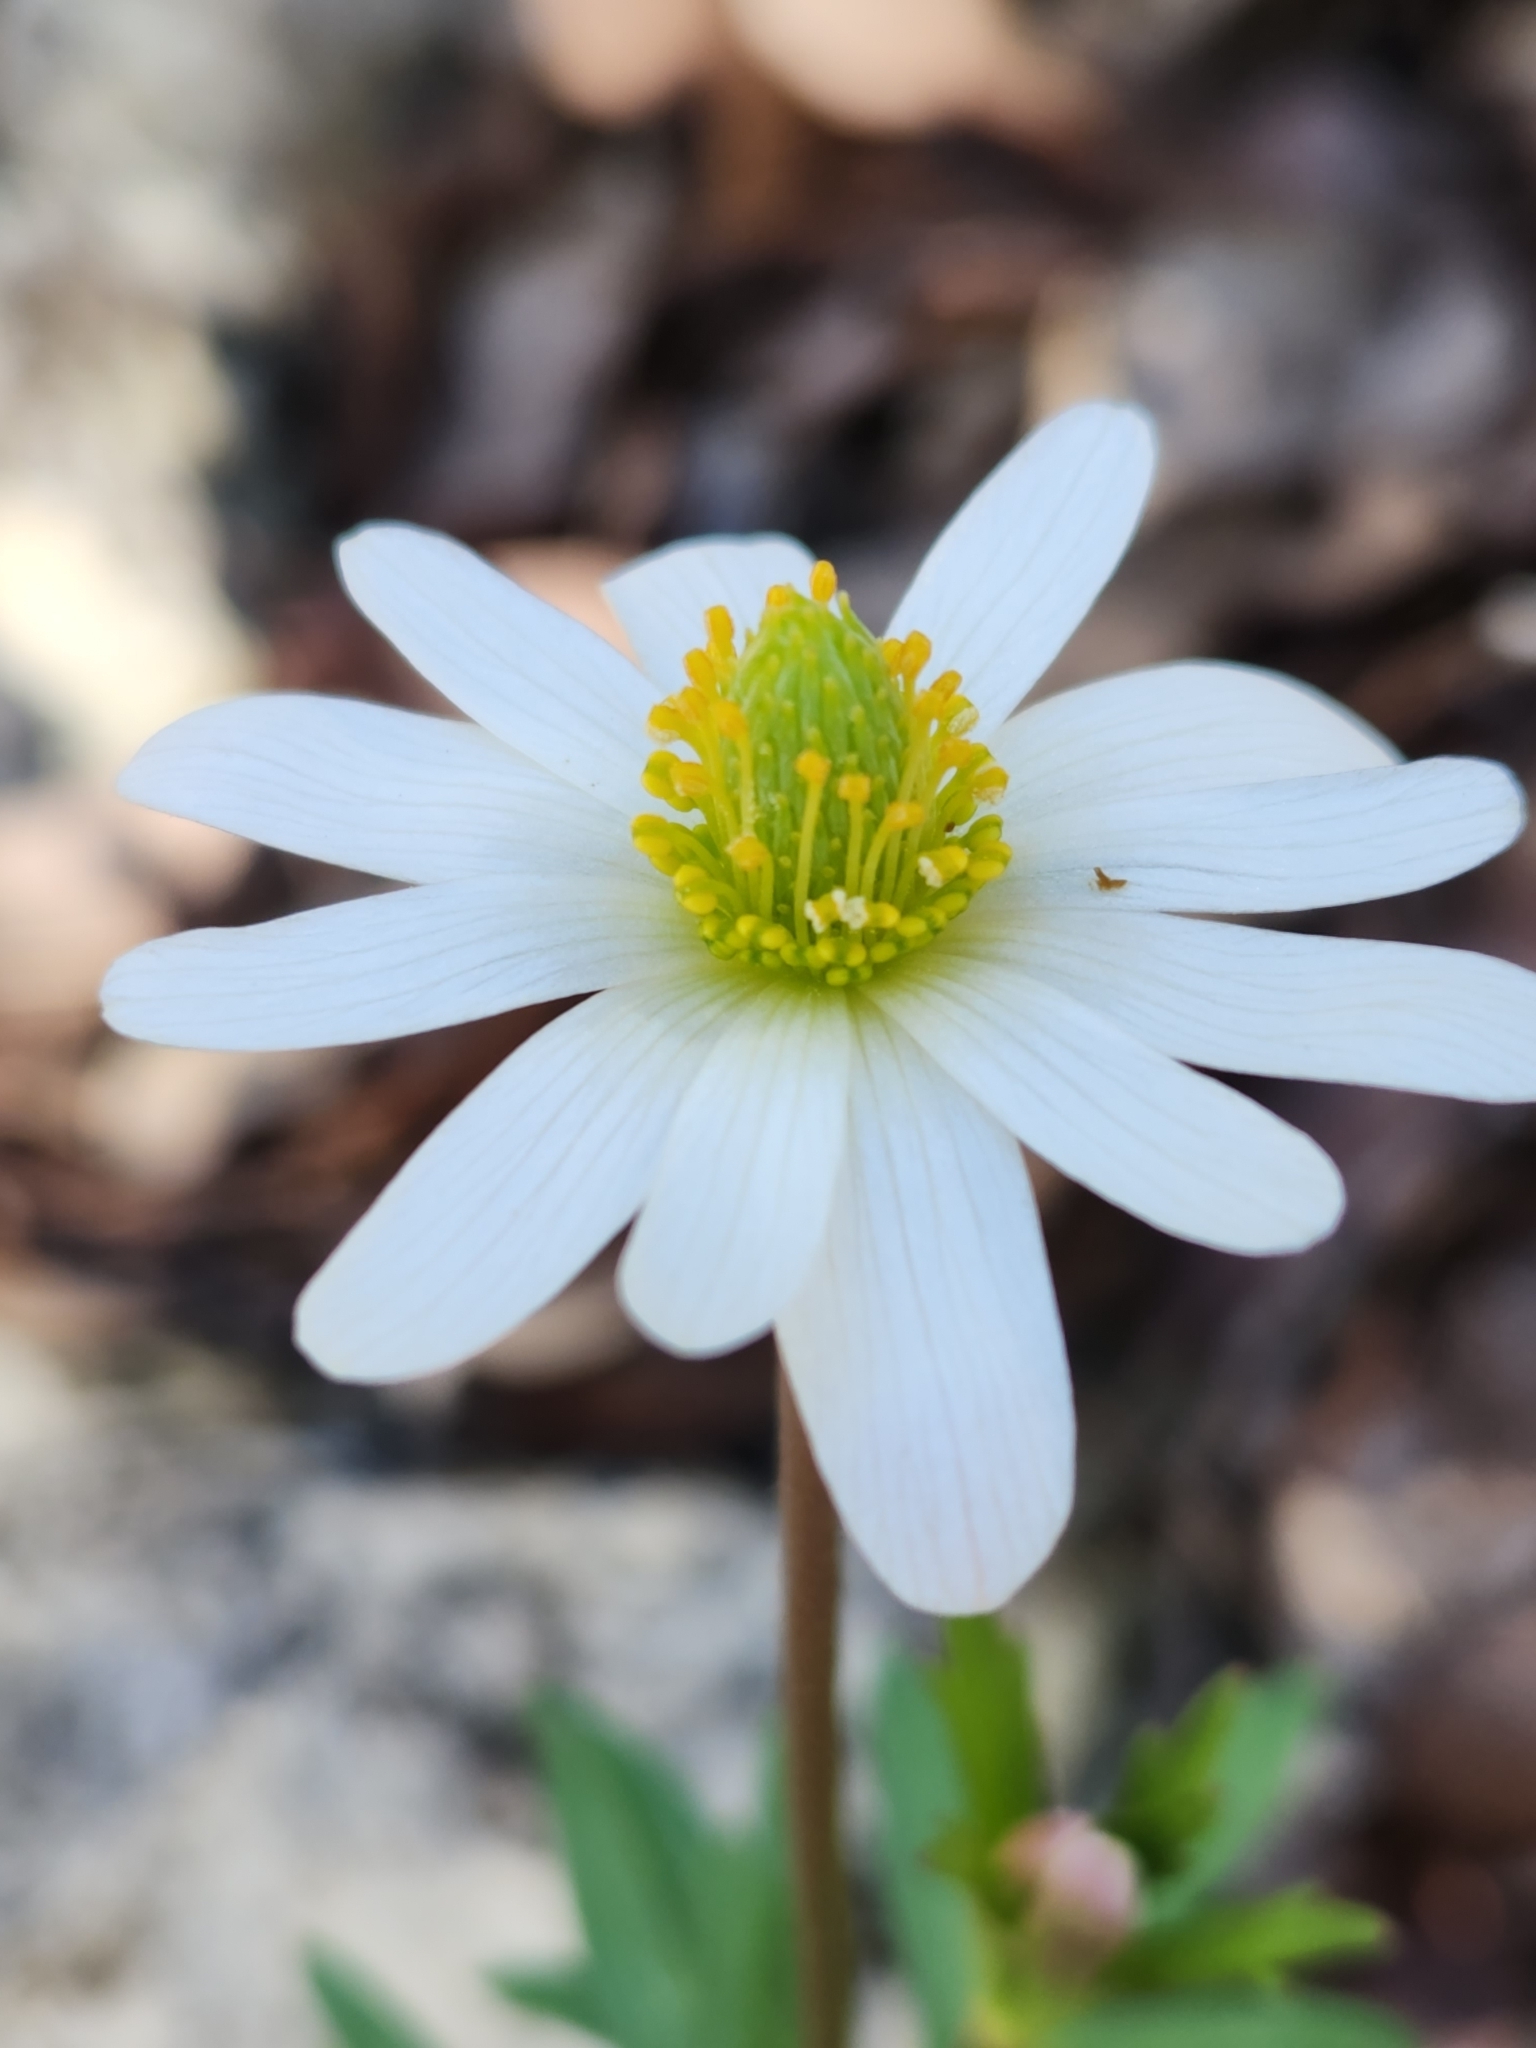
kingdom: Plantae
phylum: Tracheophyta
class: Magnoliopsida
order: Ranunculales
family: Ranunculaceae
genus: Anemone
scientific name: Anemone edwardsiana
